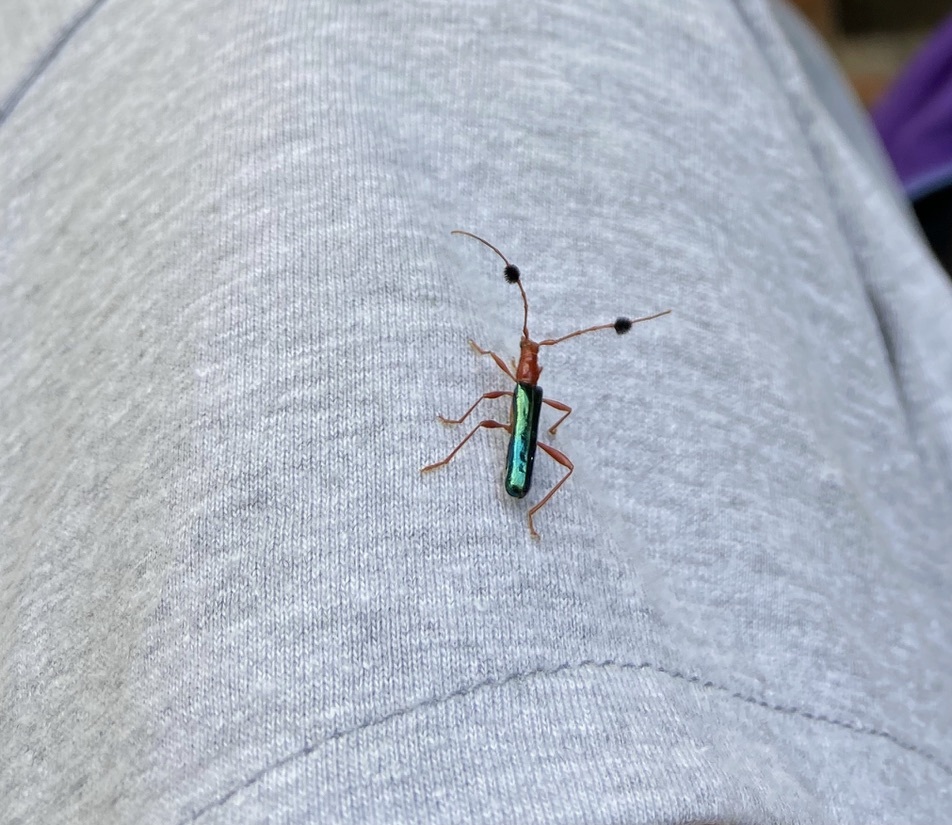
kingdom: Animalia
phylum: Arthropoda
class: Insecta
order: Coleoptera
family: Cerambycidae
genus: Paromoeocerus
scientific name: Paromoeocerus barbicornis
